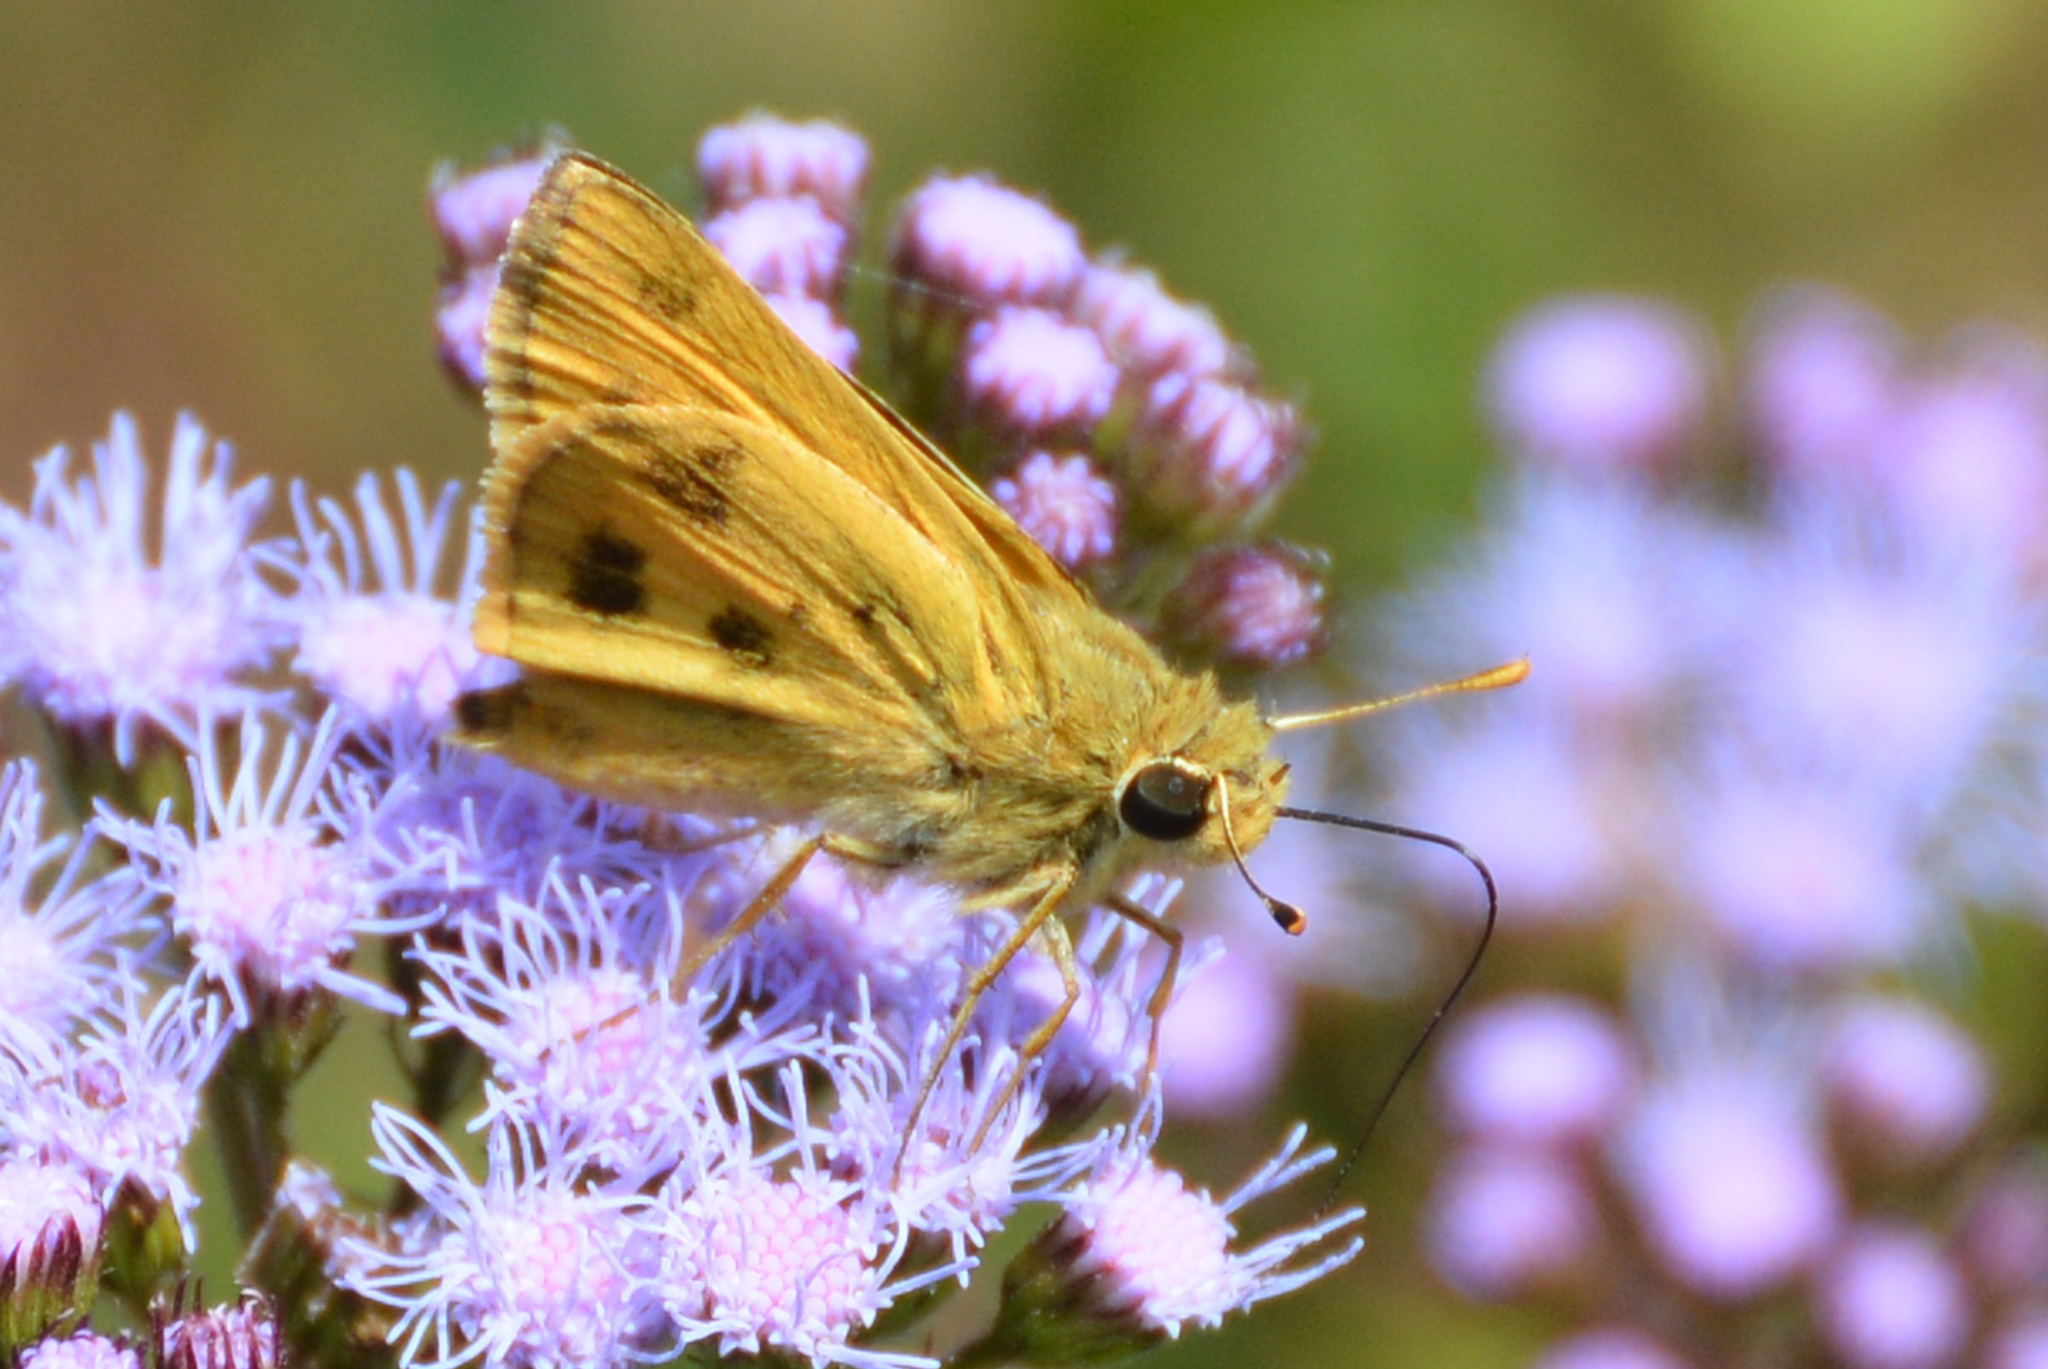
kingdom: Animalia
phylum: Arthropoda
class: Insecta
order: Lepidoptera
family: Hesperiidae
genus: Polites
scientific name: Polites vibex
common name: Whirlabout
